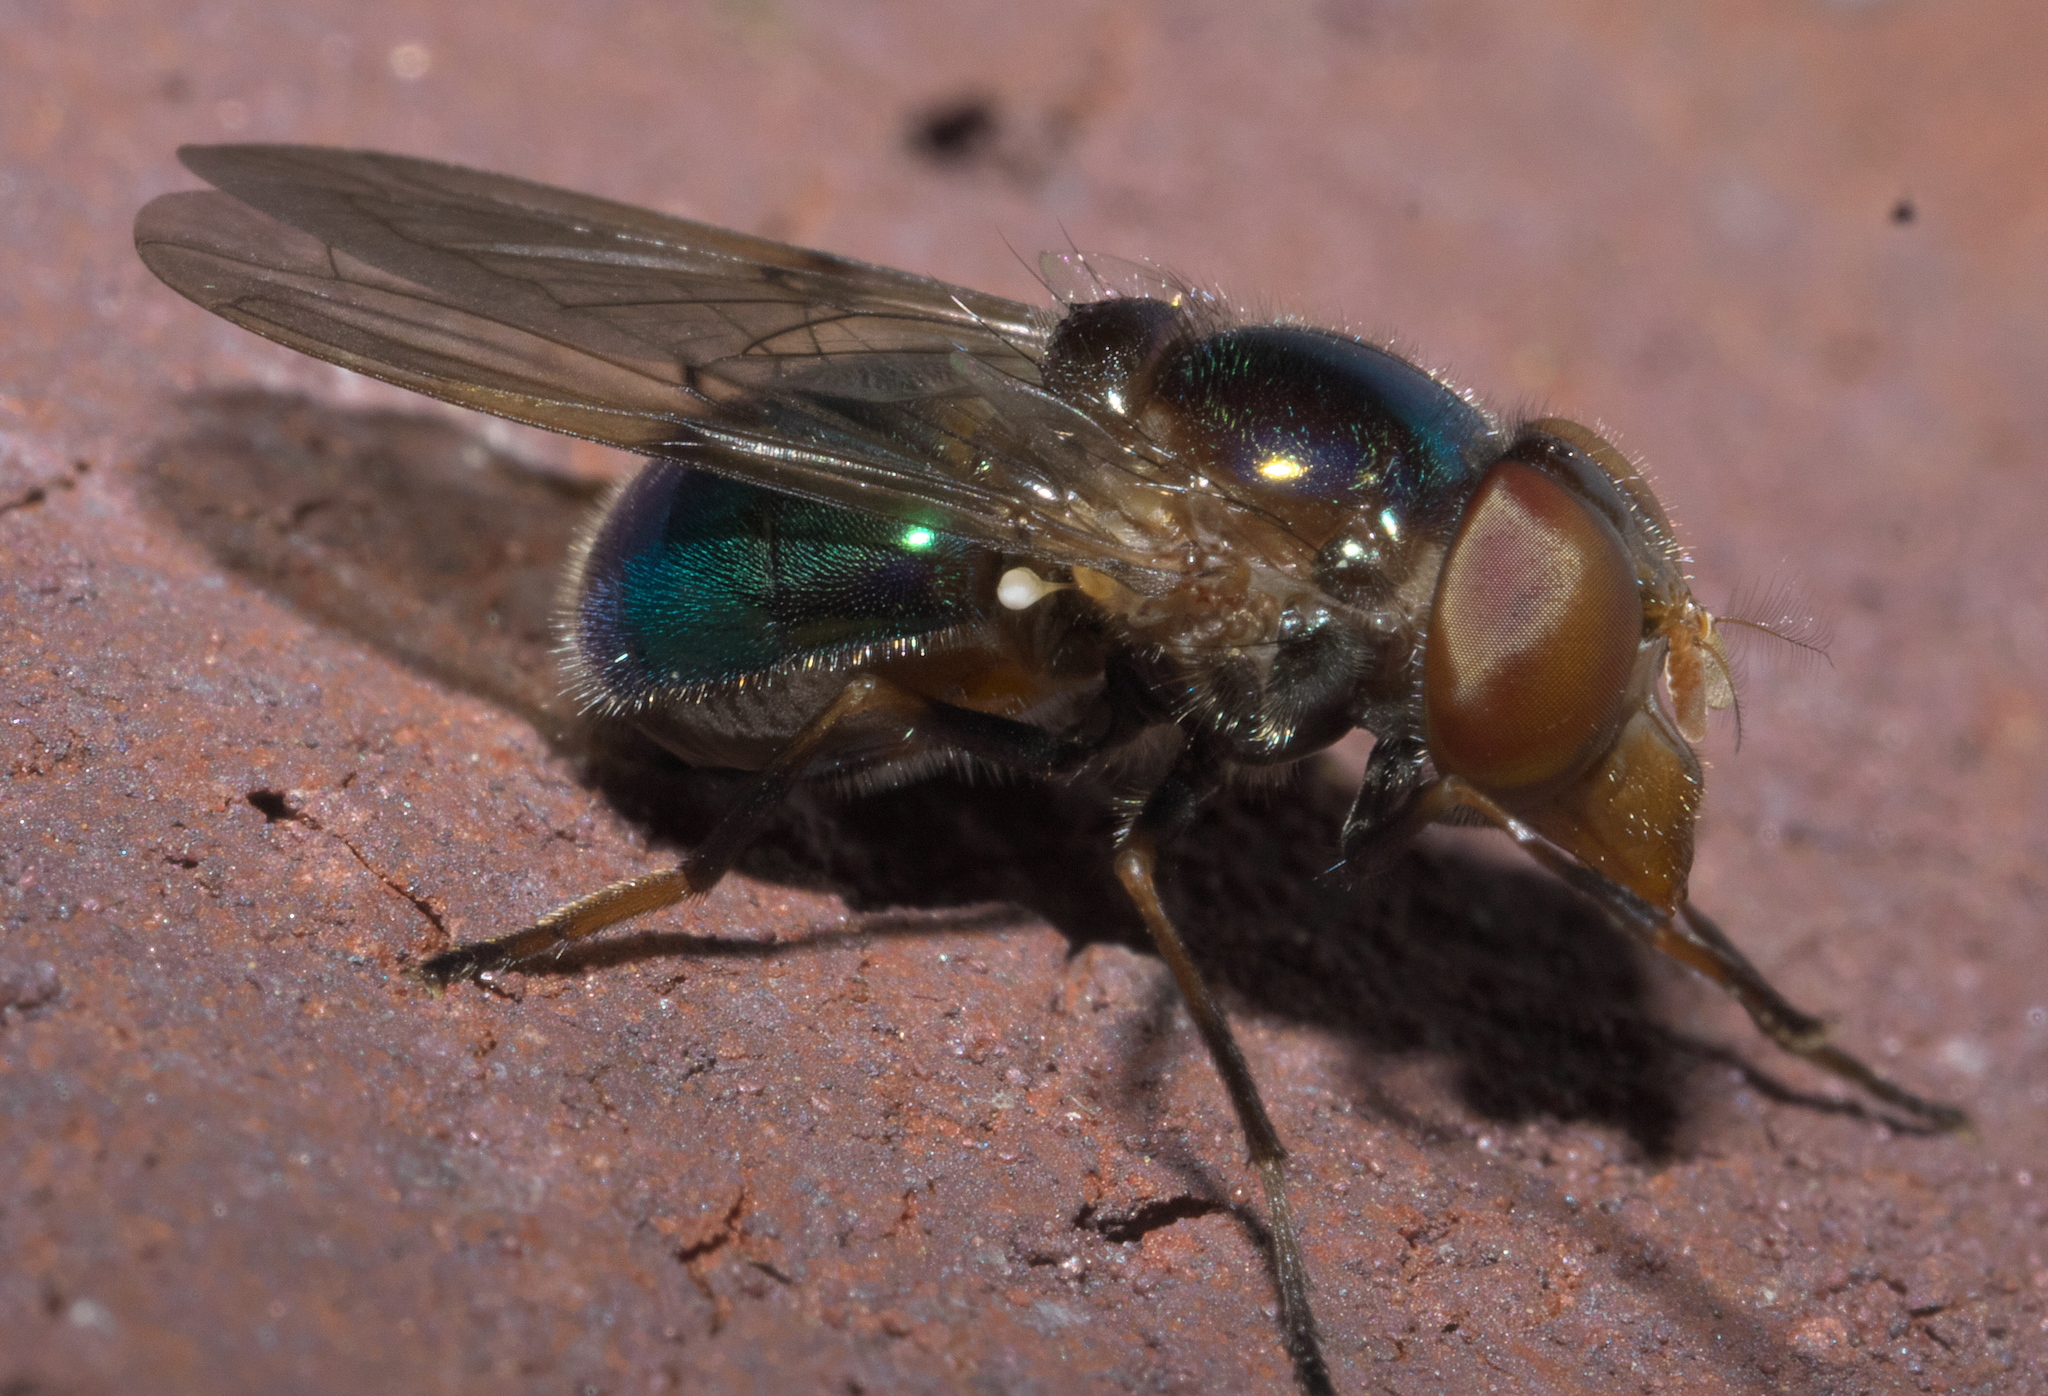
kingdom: Animalia
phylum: Arthropoda
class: Insecta
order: Diptera
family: Syrphidae
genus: Copestylum
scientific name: Copestylum vesicularium
